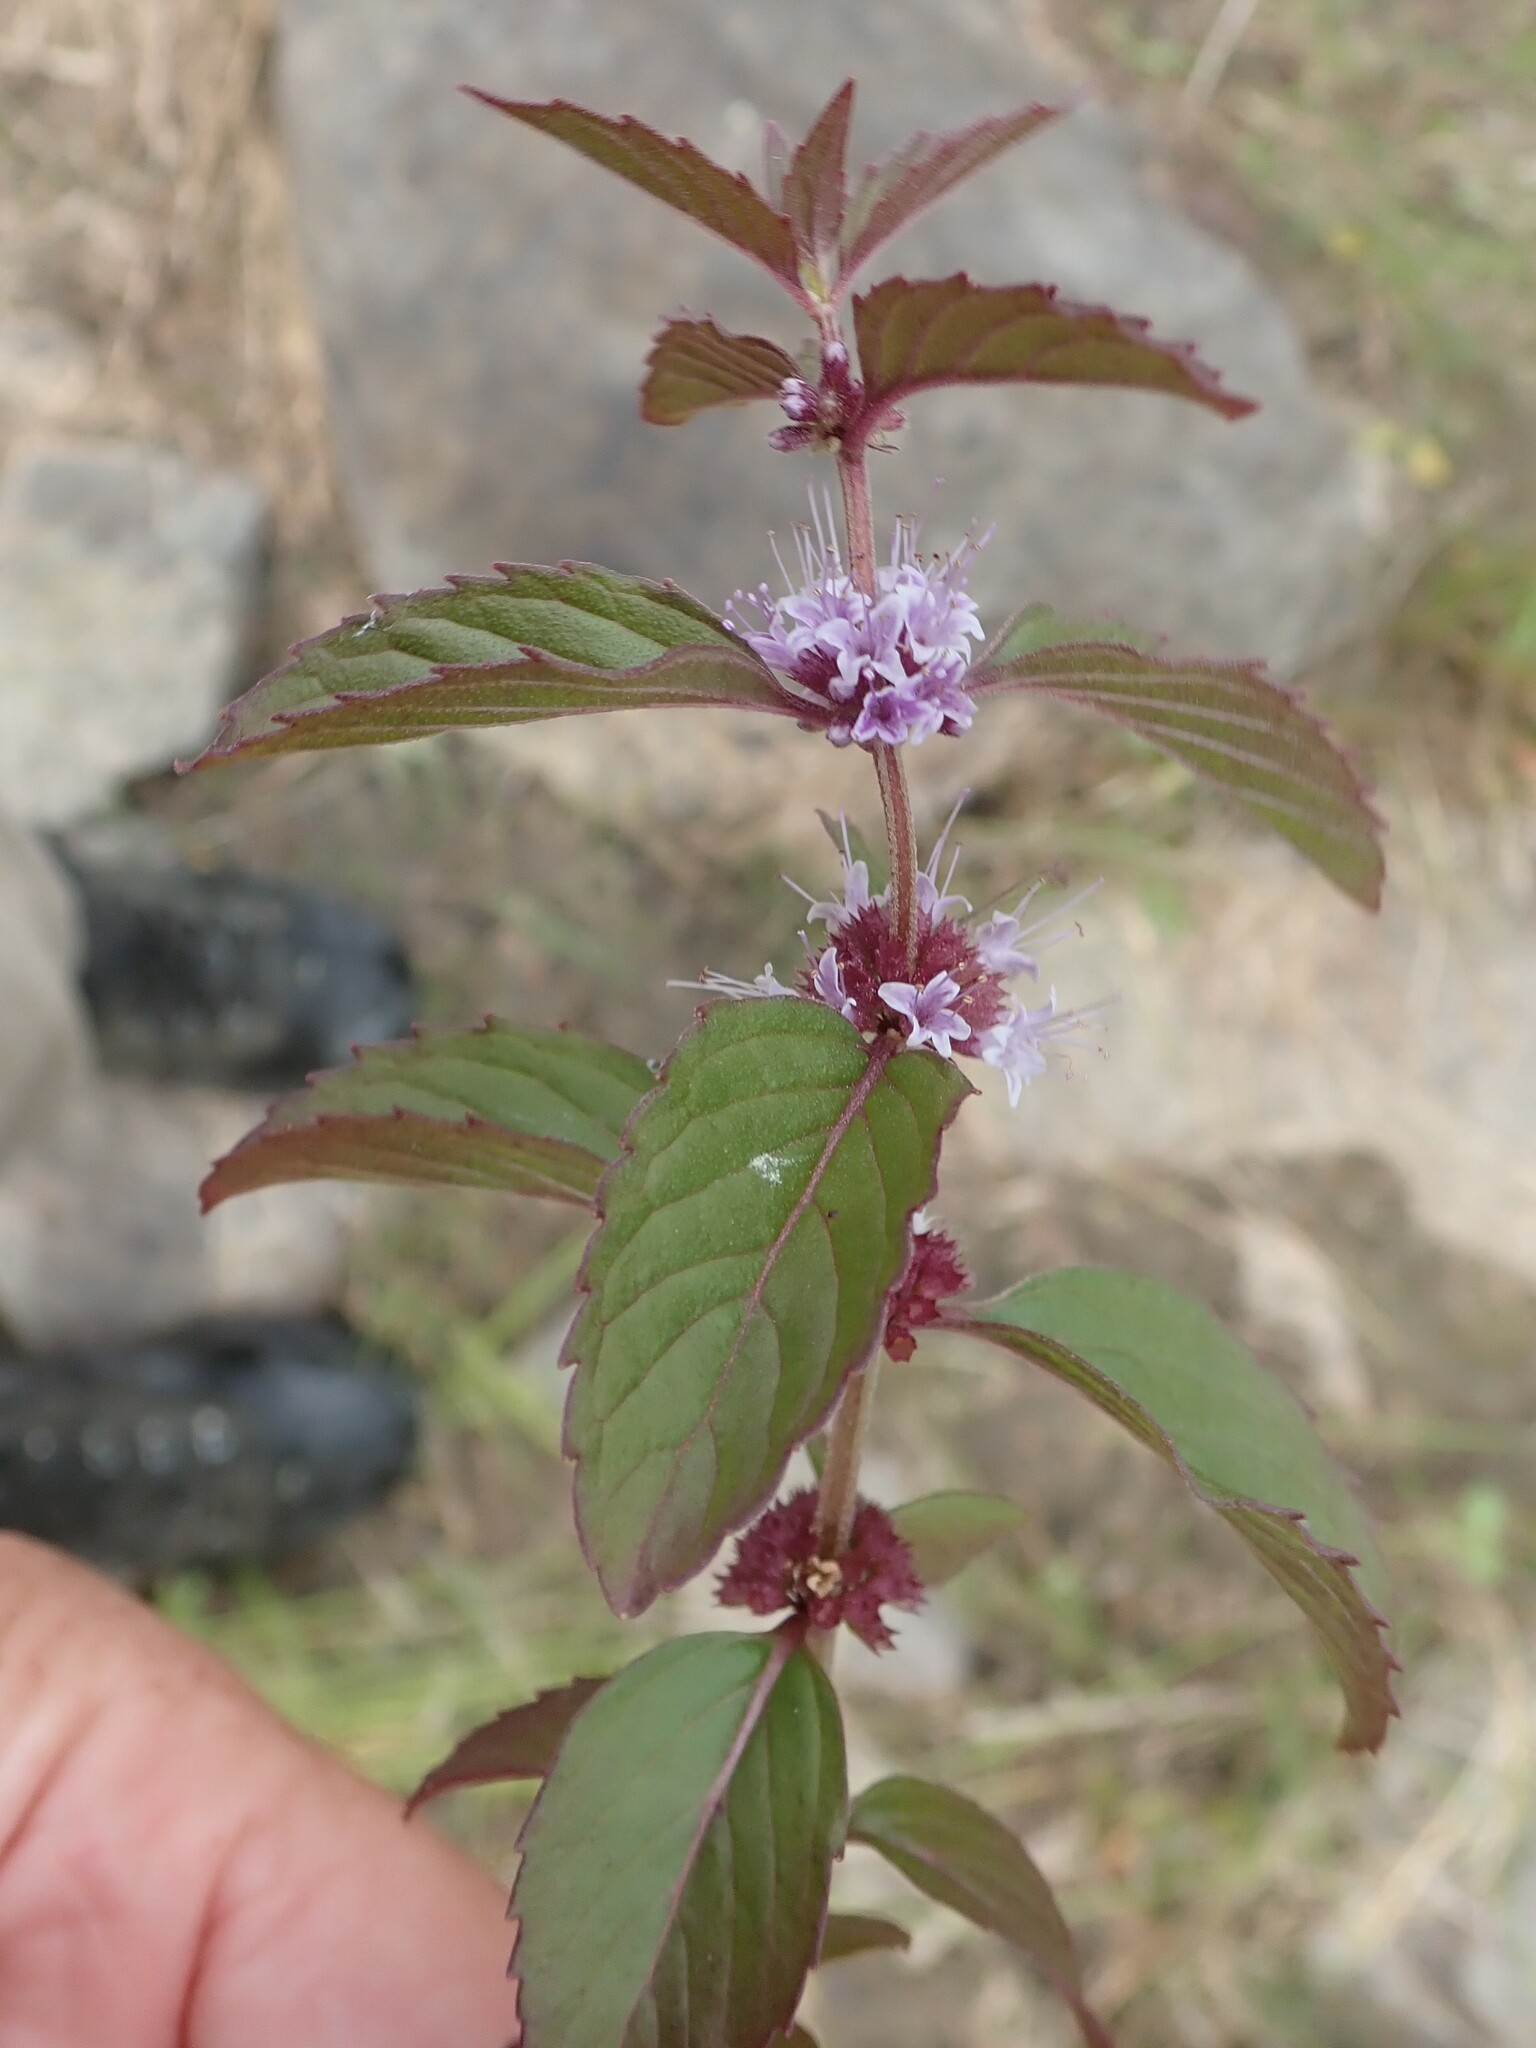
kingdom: Plantae
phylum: Tracheophyta
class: Magnoliopsida
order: Lamiales
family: Lamiaceae
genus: Mentha
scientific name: Mentha canadensis
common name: American corn mint
